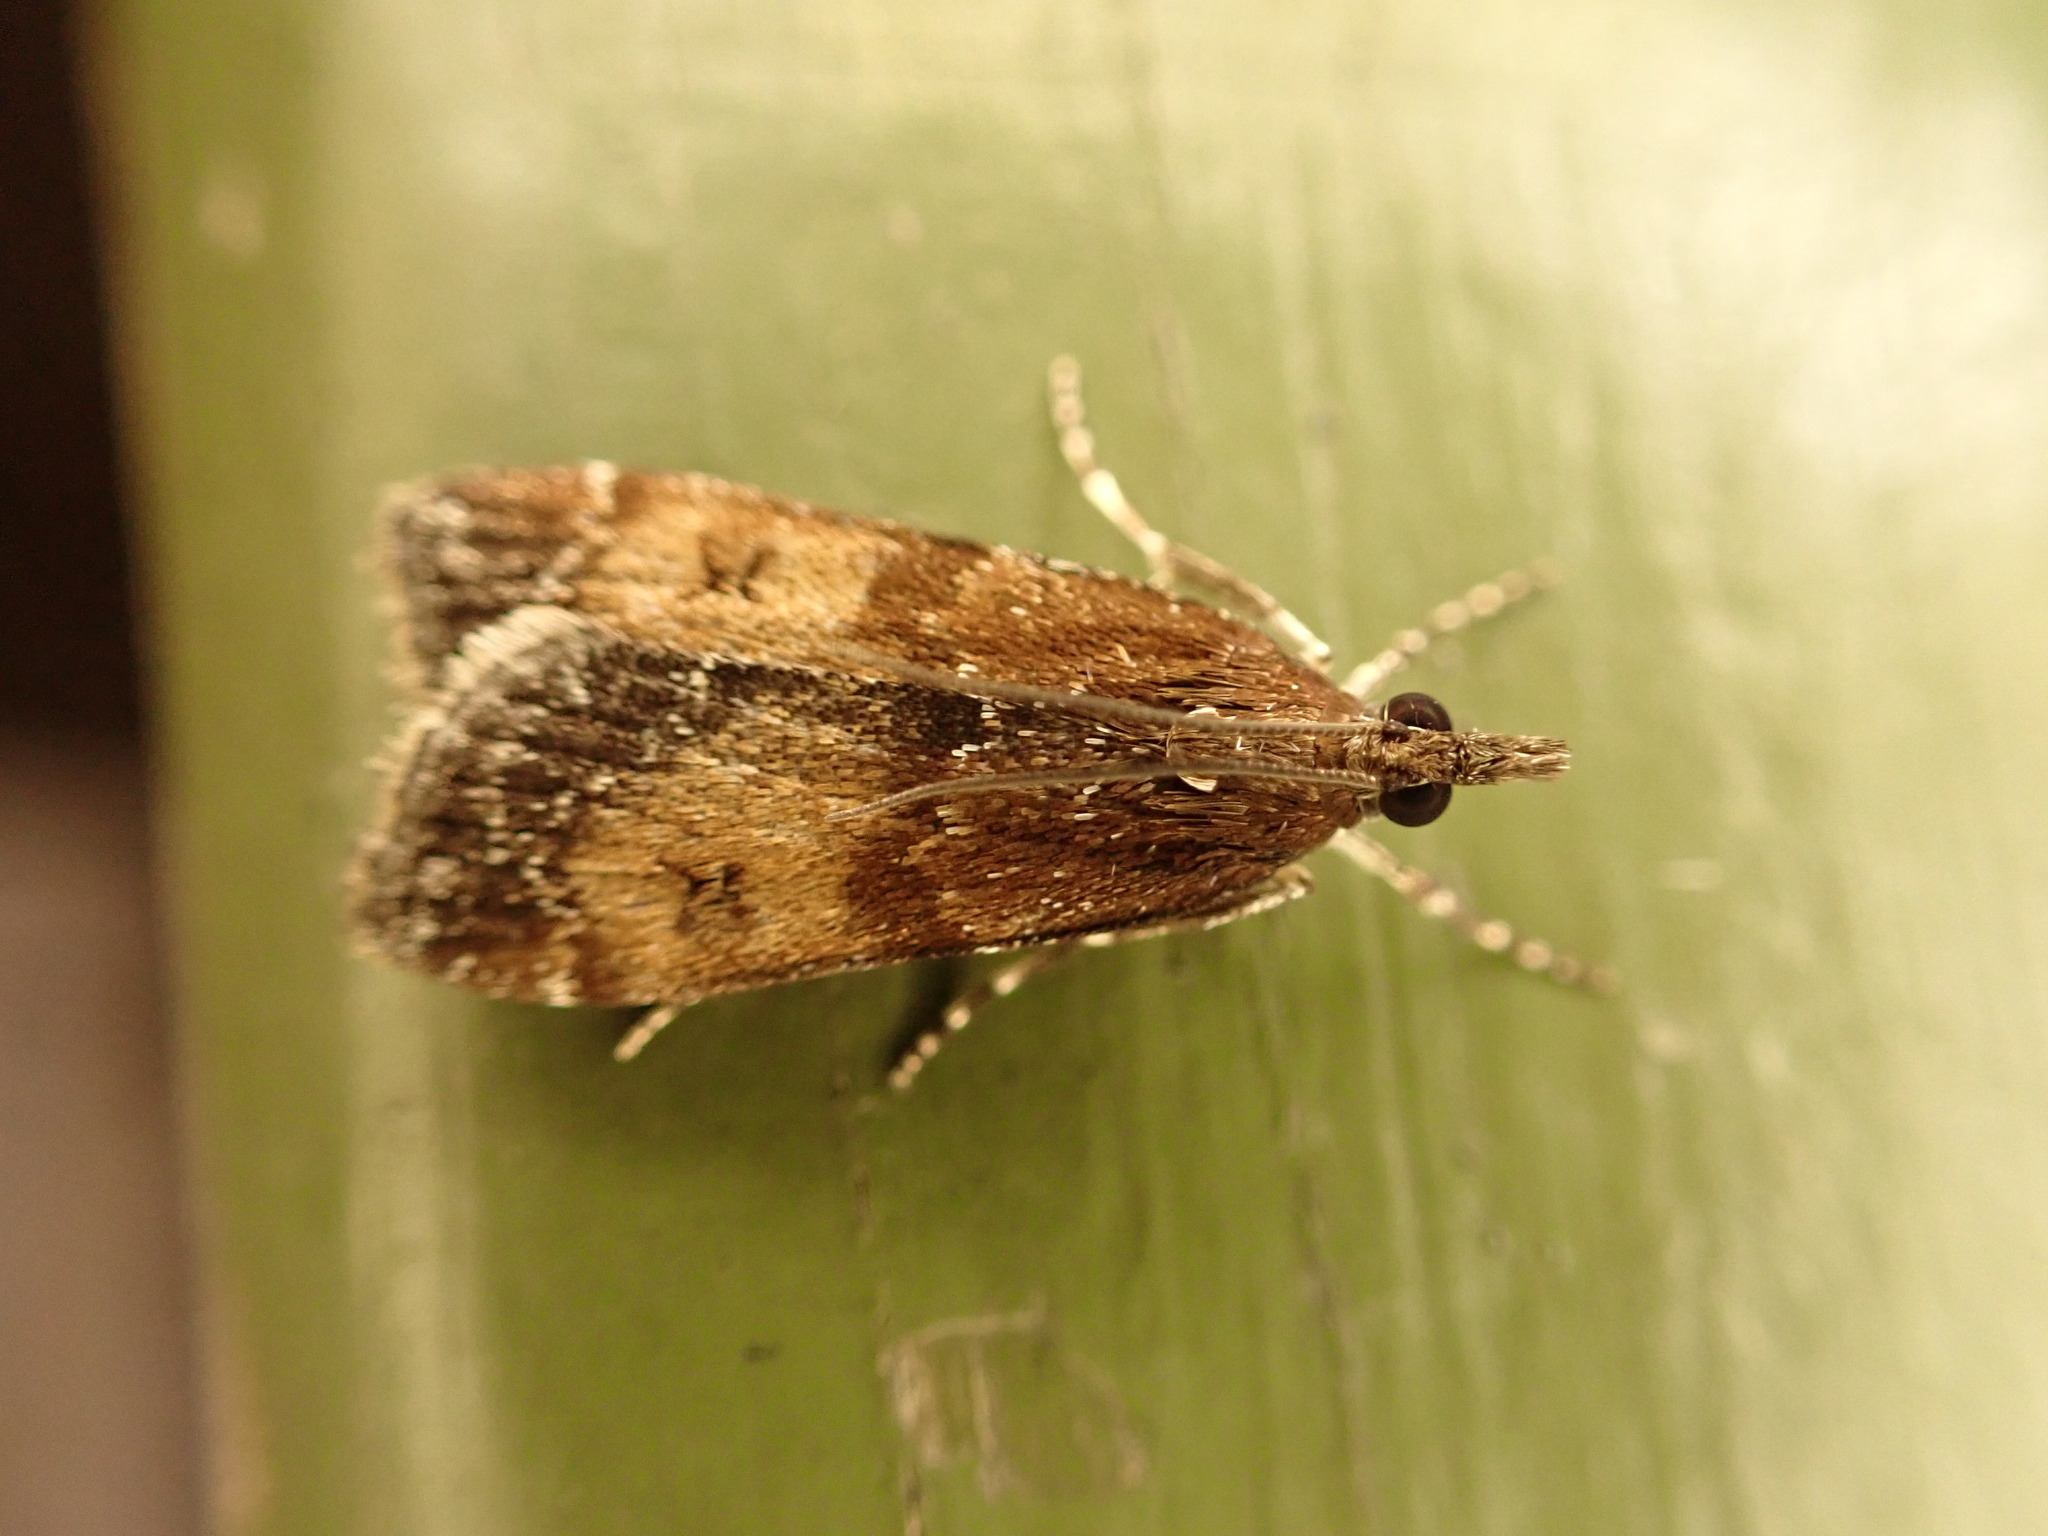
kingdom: Animalia
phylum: Arthropoda
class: Insecta
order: Lepidoptera
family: Crambidae
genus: Eudonia
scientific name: Eudonia asterisca
